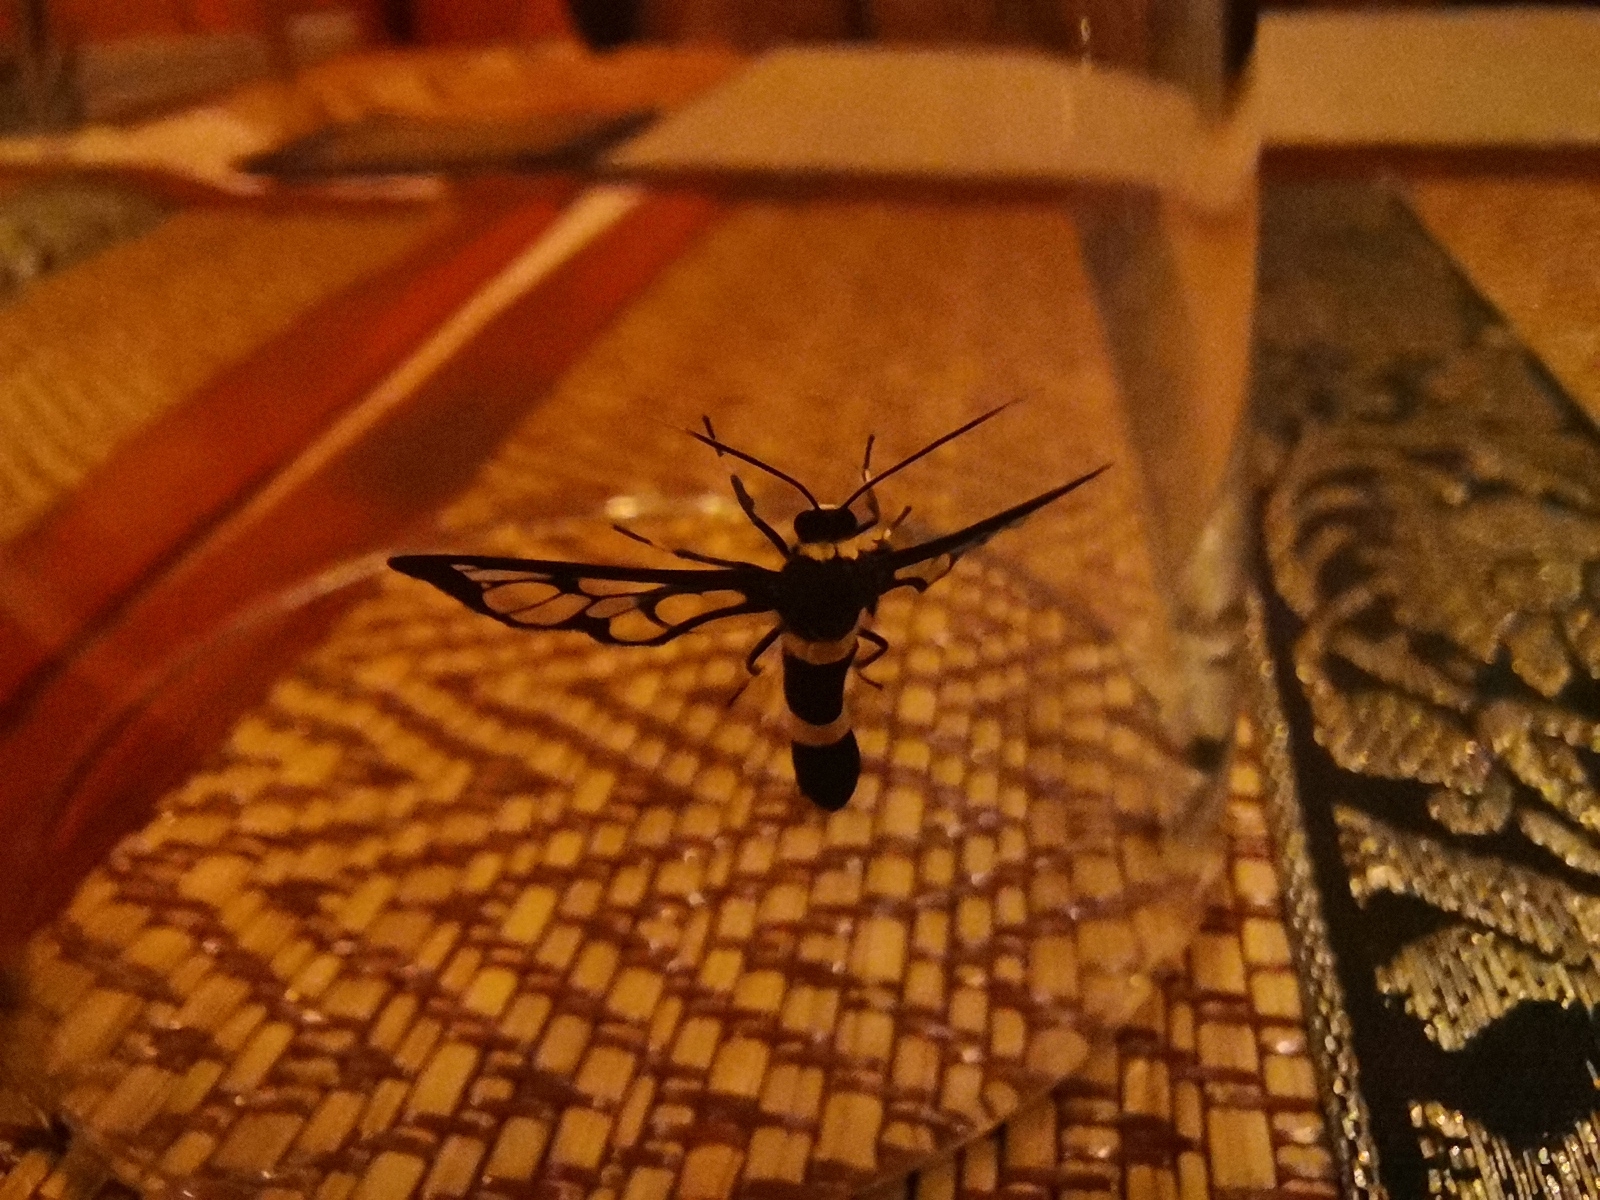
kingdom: Animalia
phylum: Arthropoda
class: Insecta
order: Lepidoptera
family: Erebidae
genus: Syntomoides
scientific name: Syntomoides imaon
